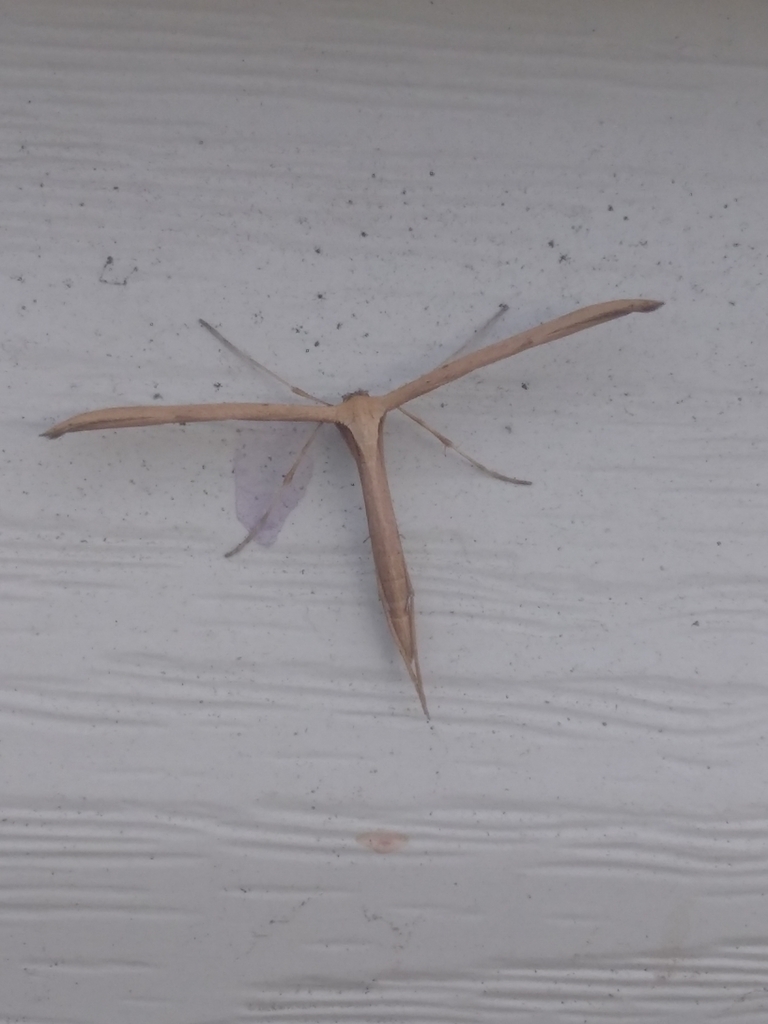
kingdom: Animalia
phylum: Arthropoda
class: Insecta
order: Lepidoptera
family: Pterophoridae
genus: Emmelina
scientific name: Emmelina monodactyla
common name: Common plume
